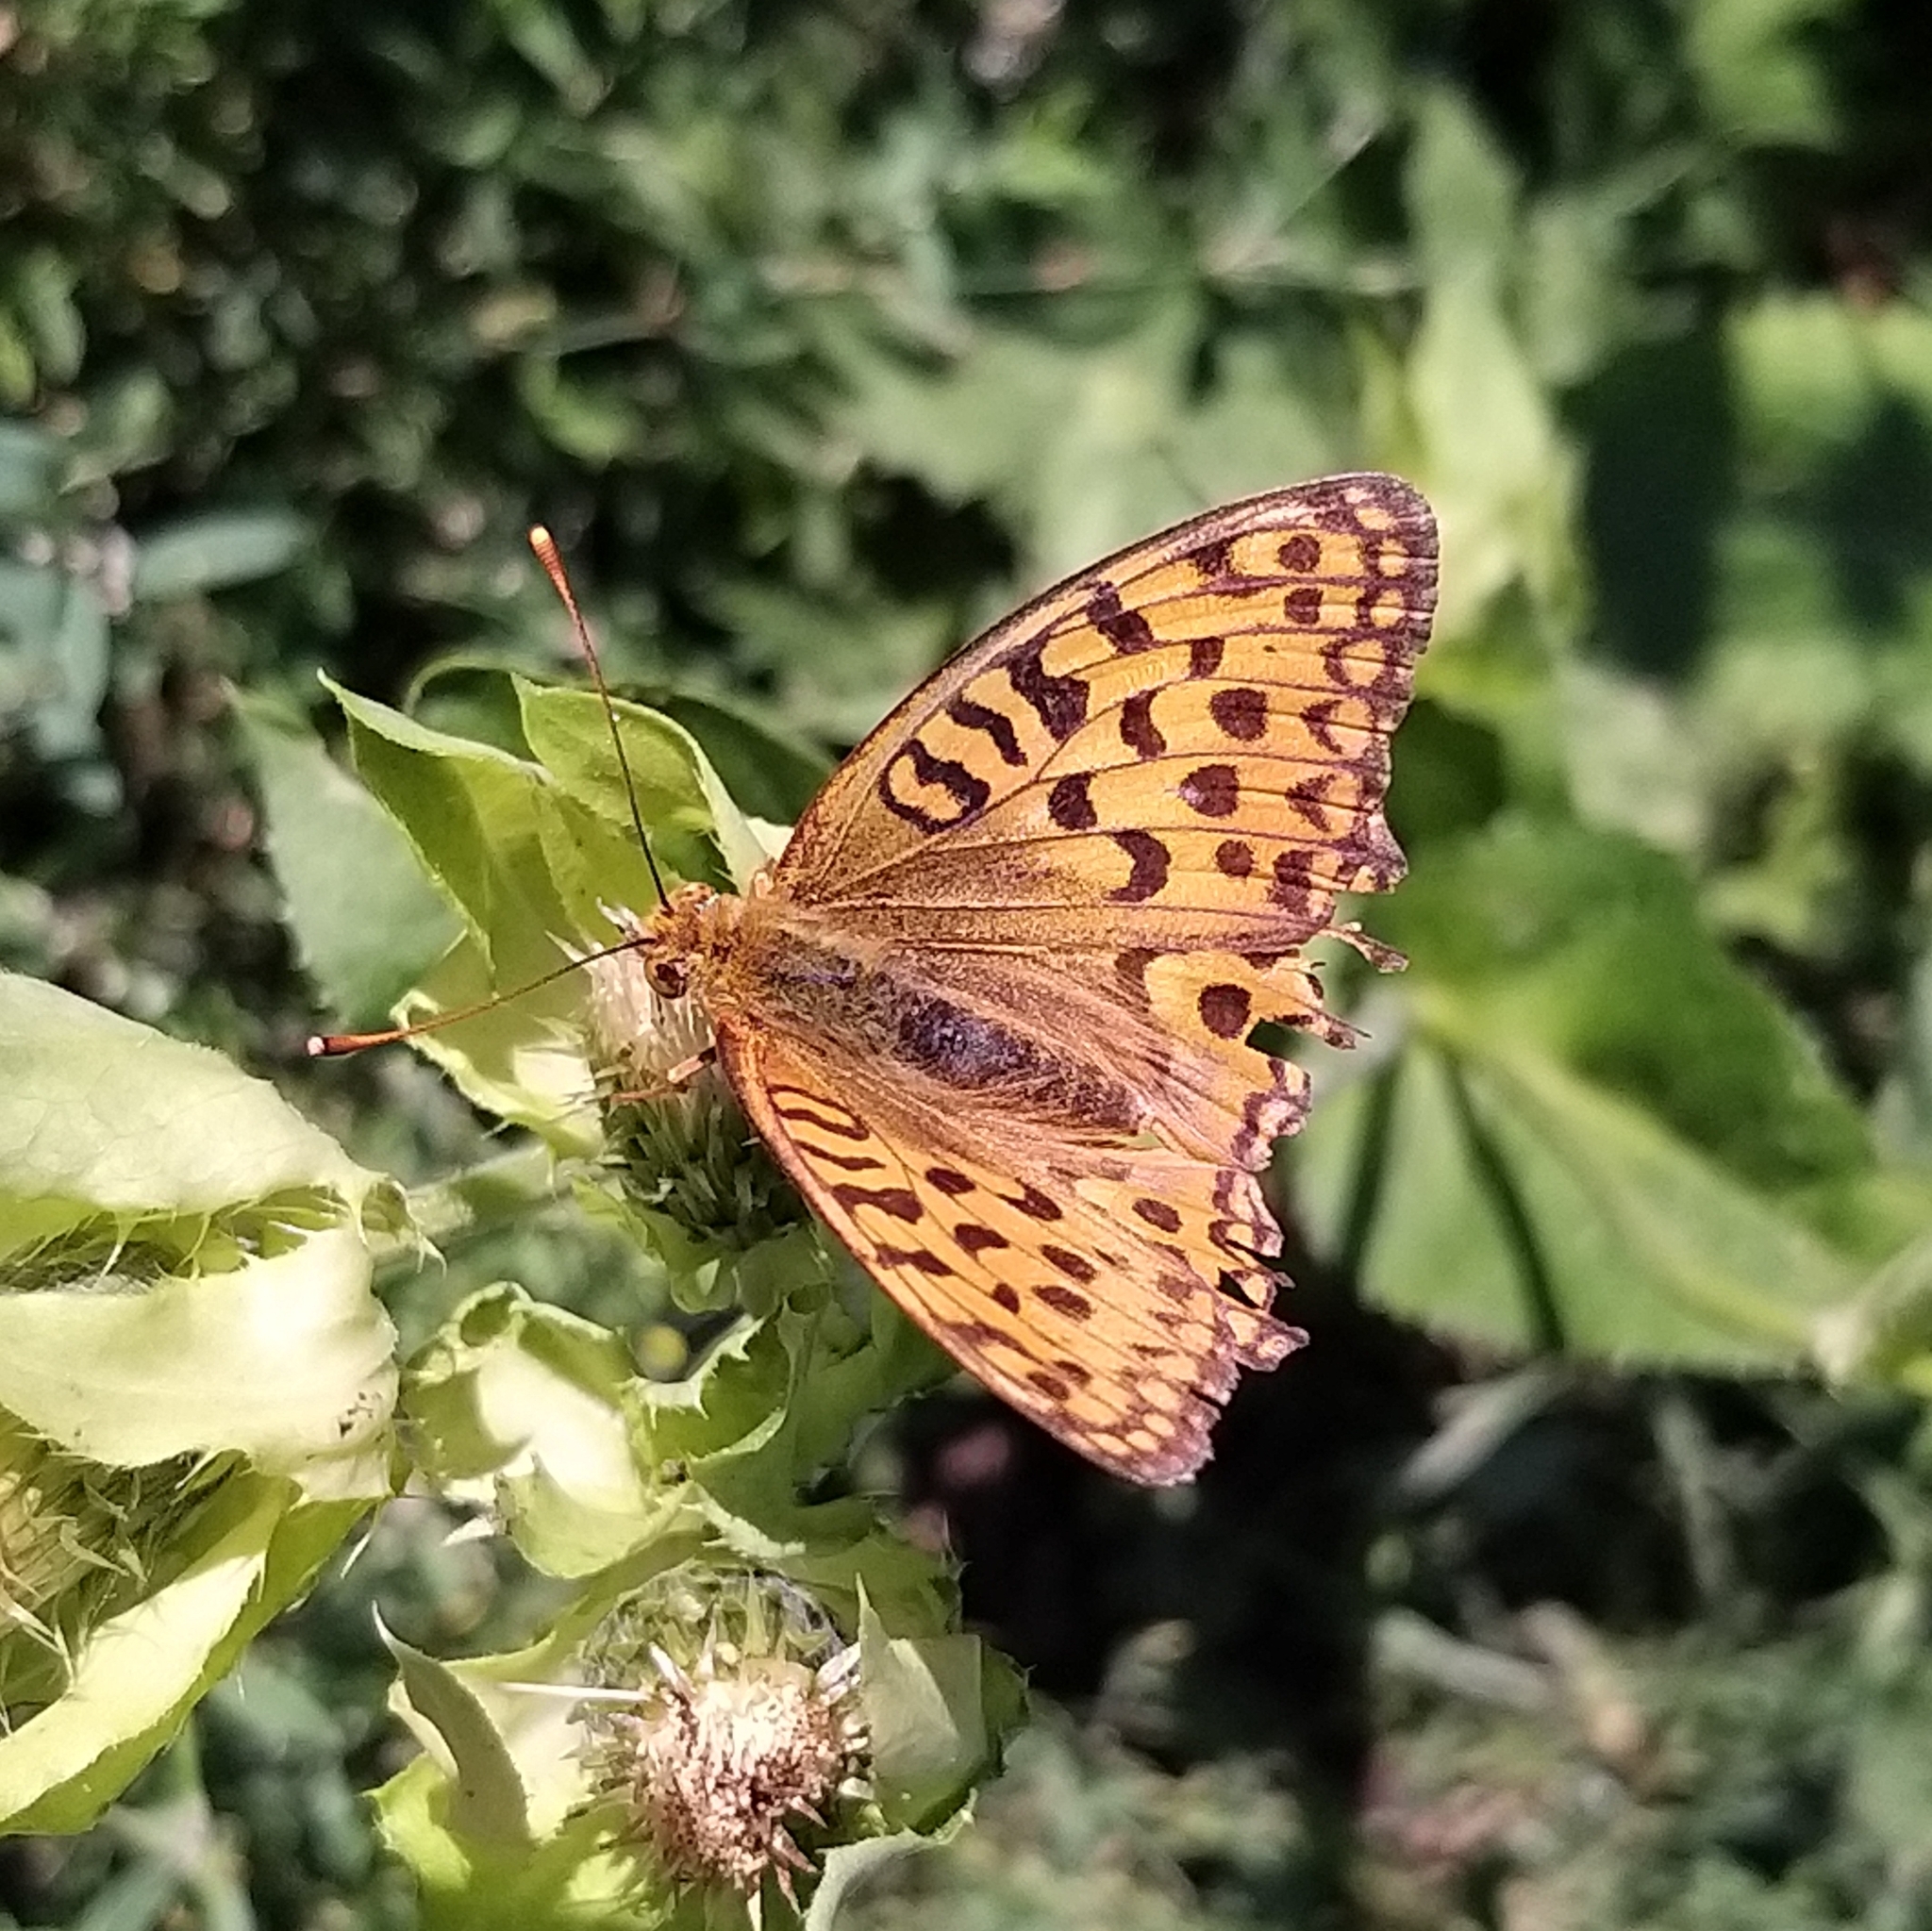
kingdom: Animalia
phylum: Arthropoda
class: Insecta
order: Lepidoptera
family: Nymphalidae
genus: Fabriciana
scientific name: Fabriciana adippe
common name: High brown fritillary
